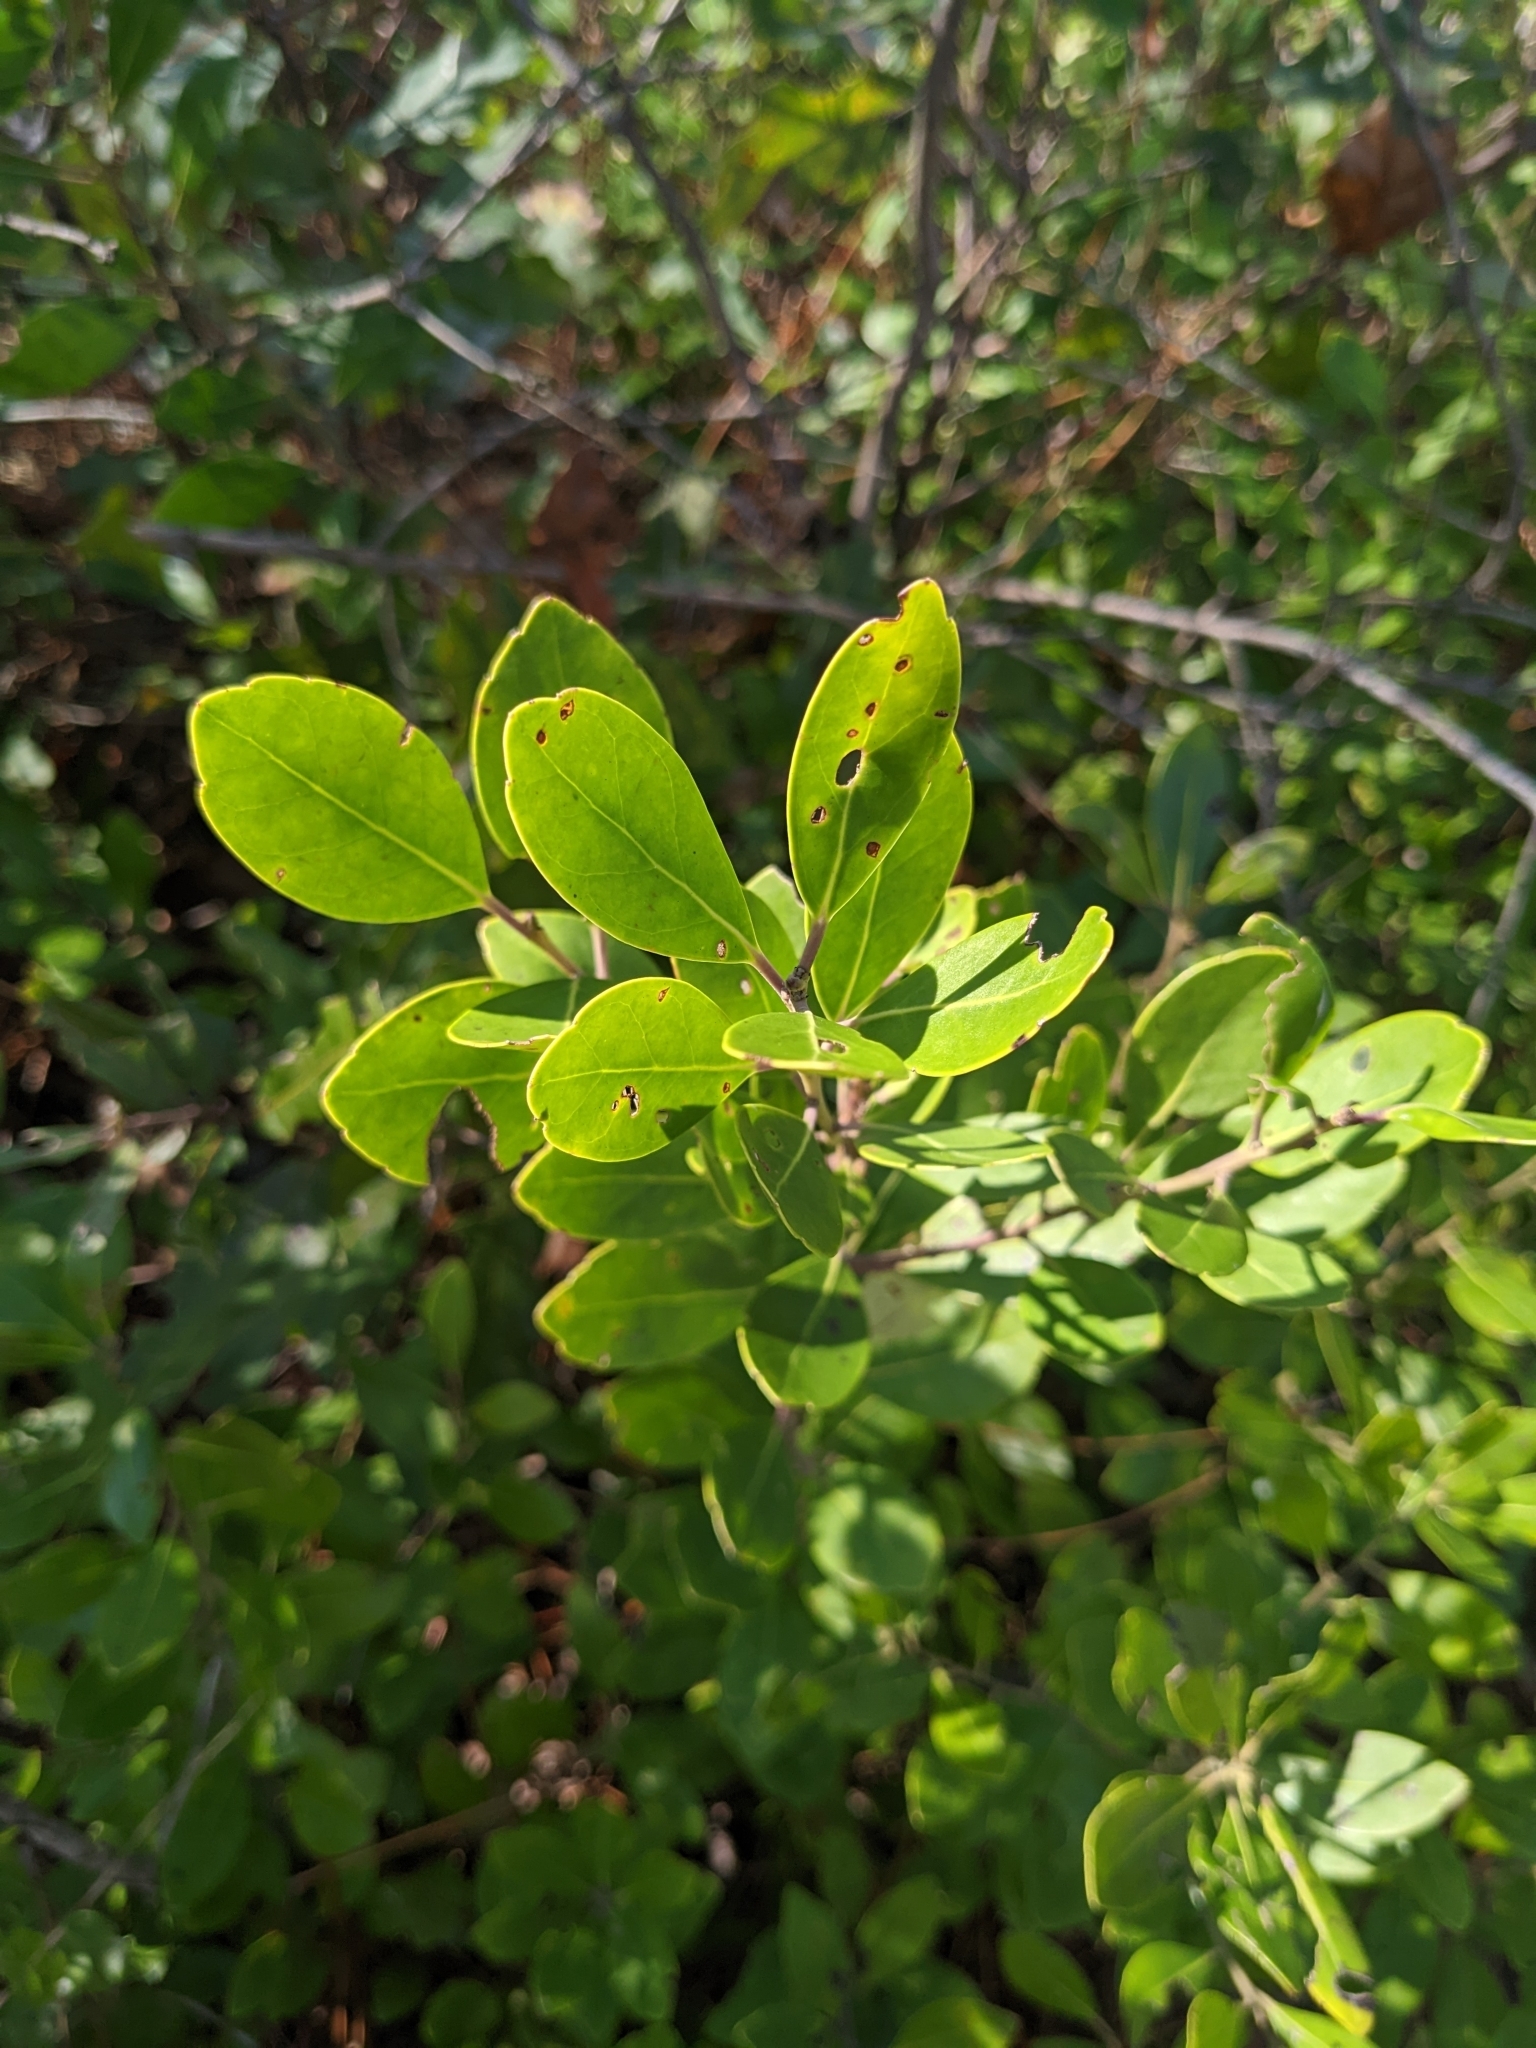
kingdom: Plantae
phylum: Tracheophyta
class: Magnoliopsida
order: Aquifoliales
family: Aquifoliaceae
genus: Ilex
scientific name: Ilex glabra
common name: Bitter gallberry
